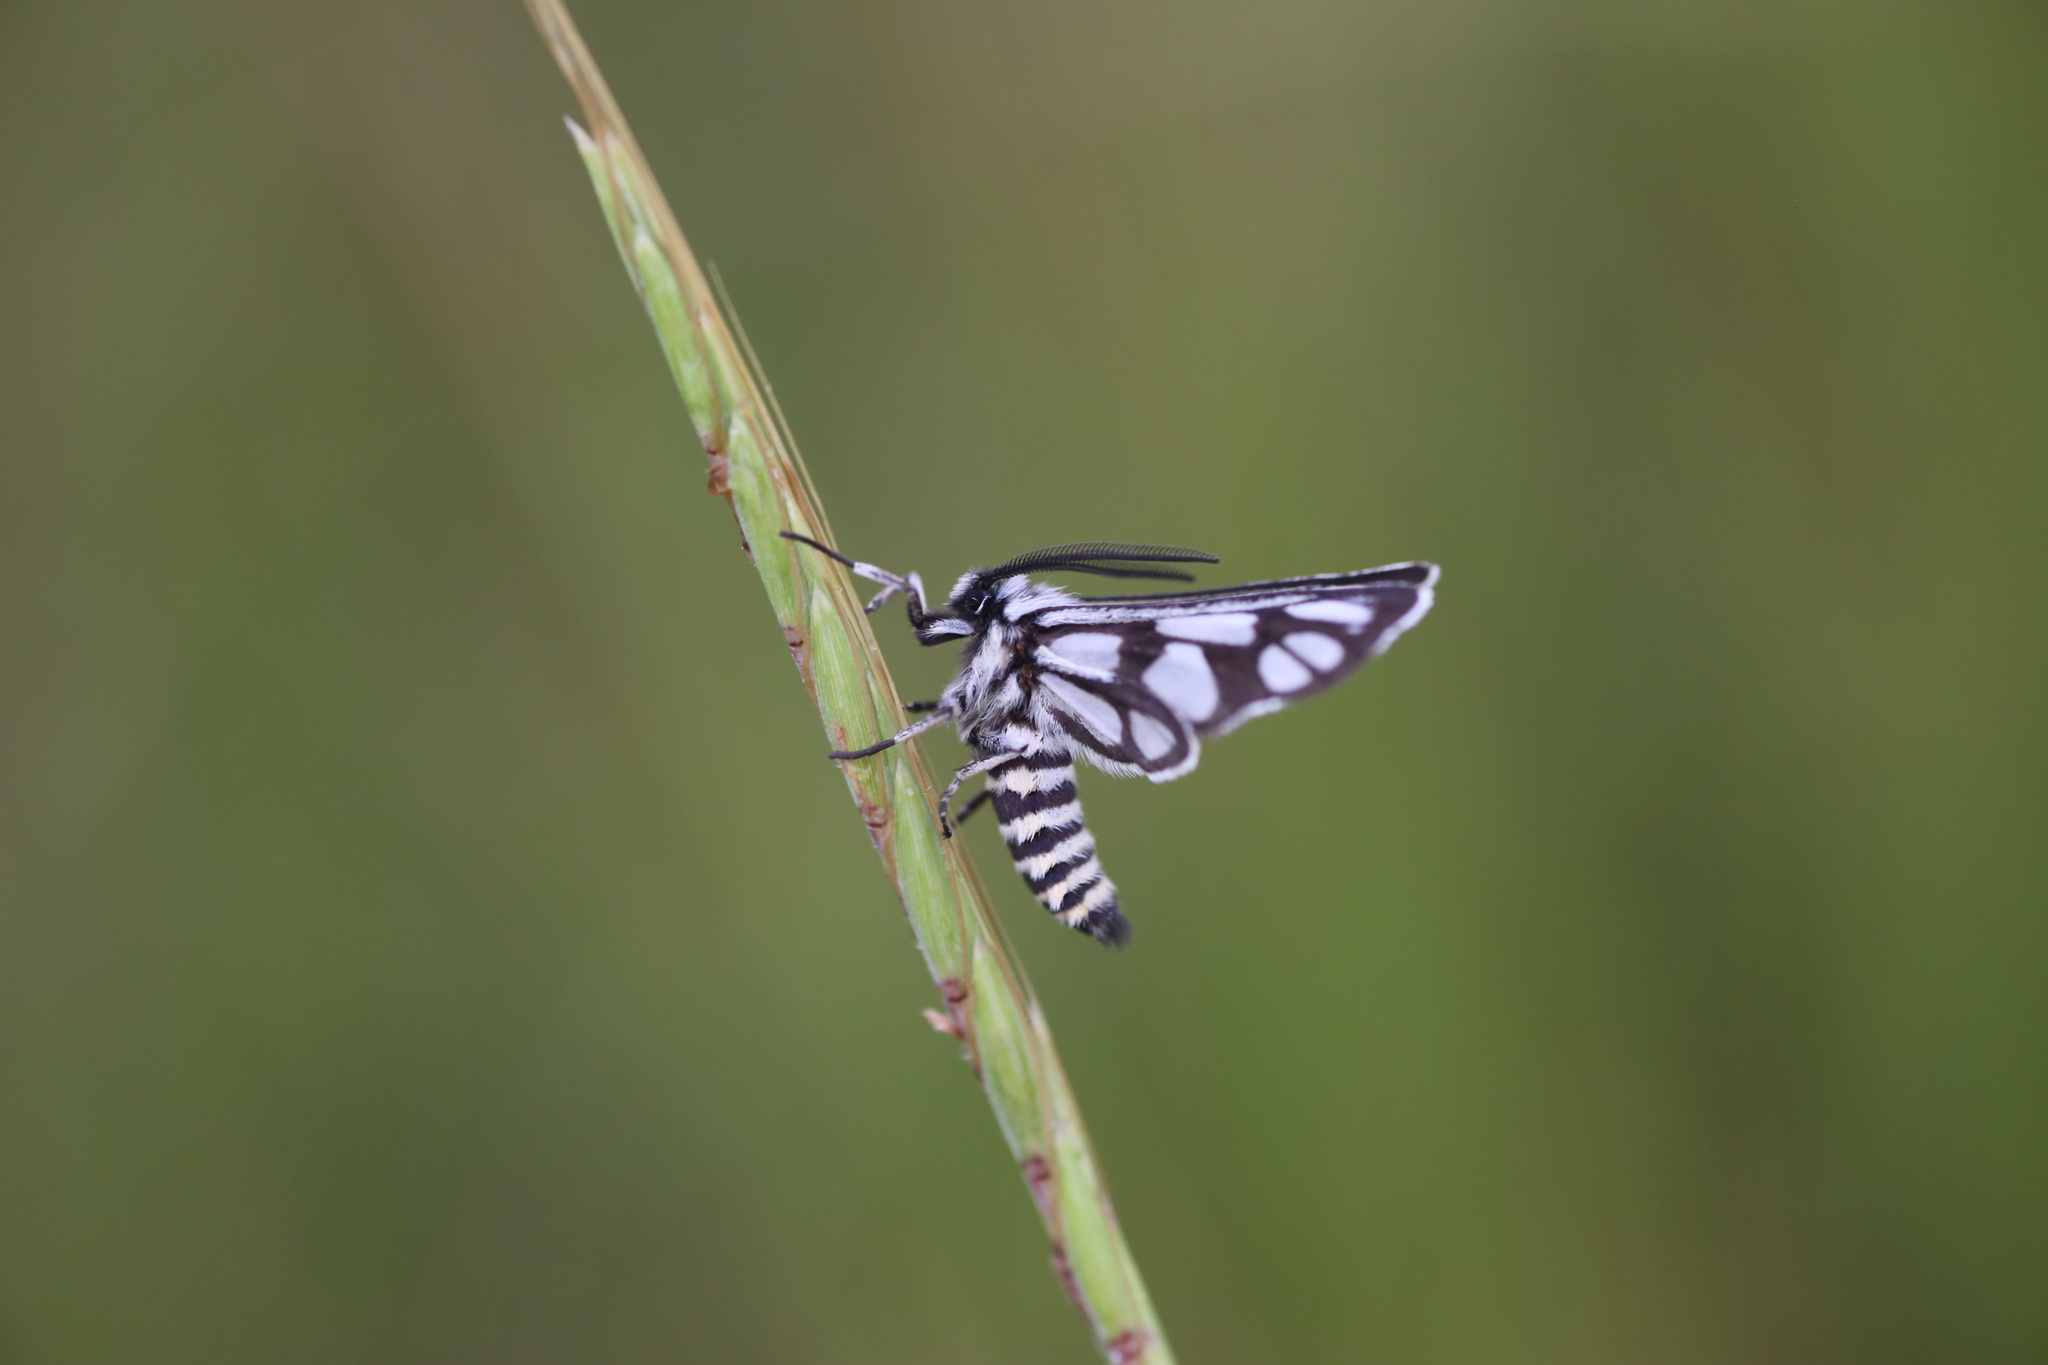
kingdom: Animalia
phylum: Arthropoda
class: Insecta
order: Lepidoptera
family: Erebidae
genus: Epitoxis
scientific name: Epitoxis amazoula
